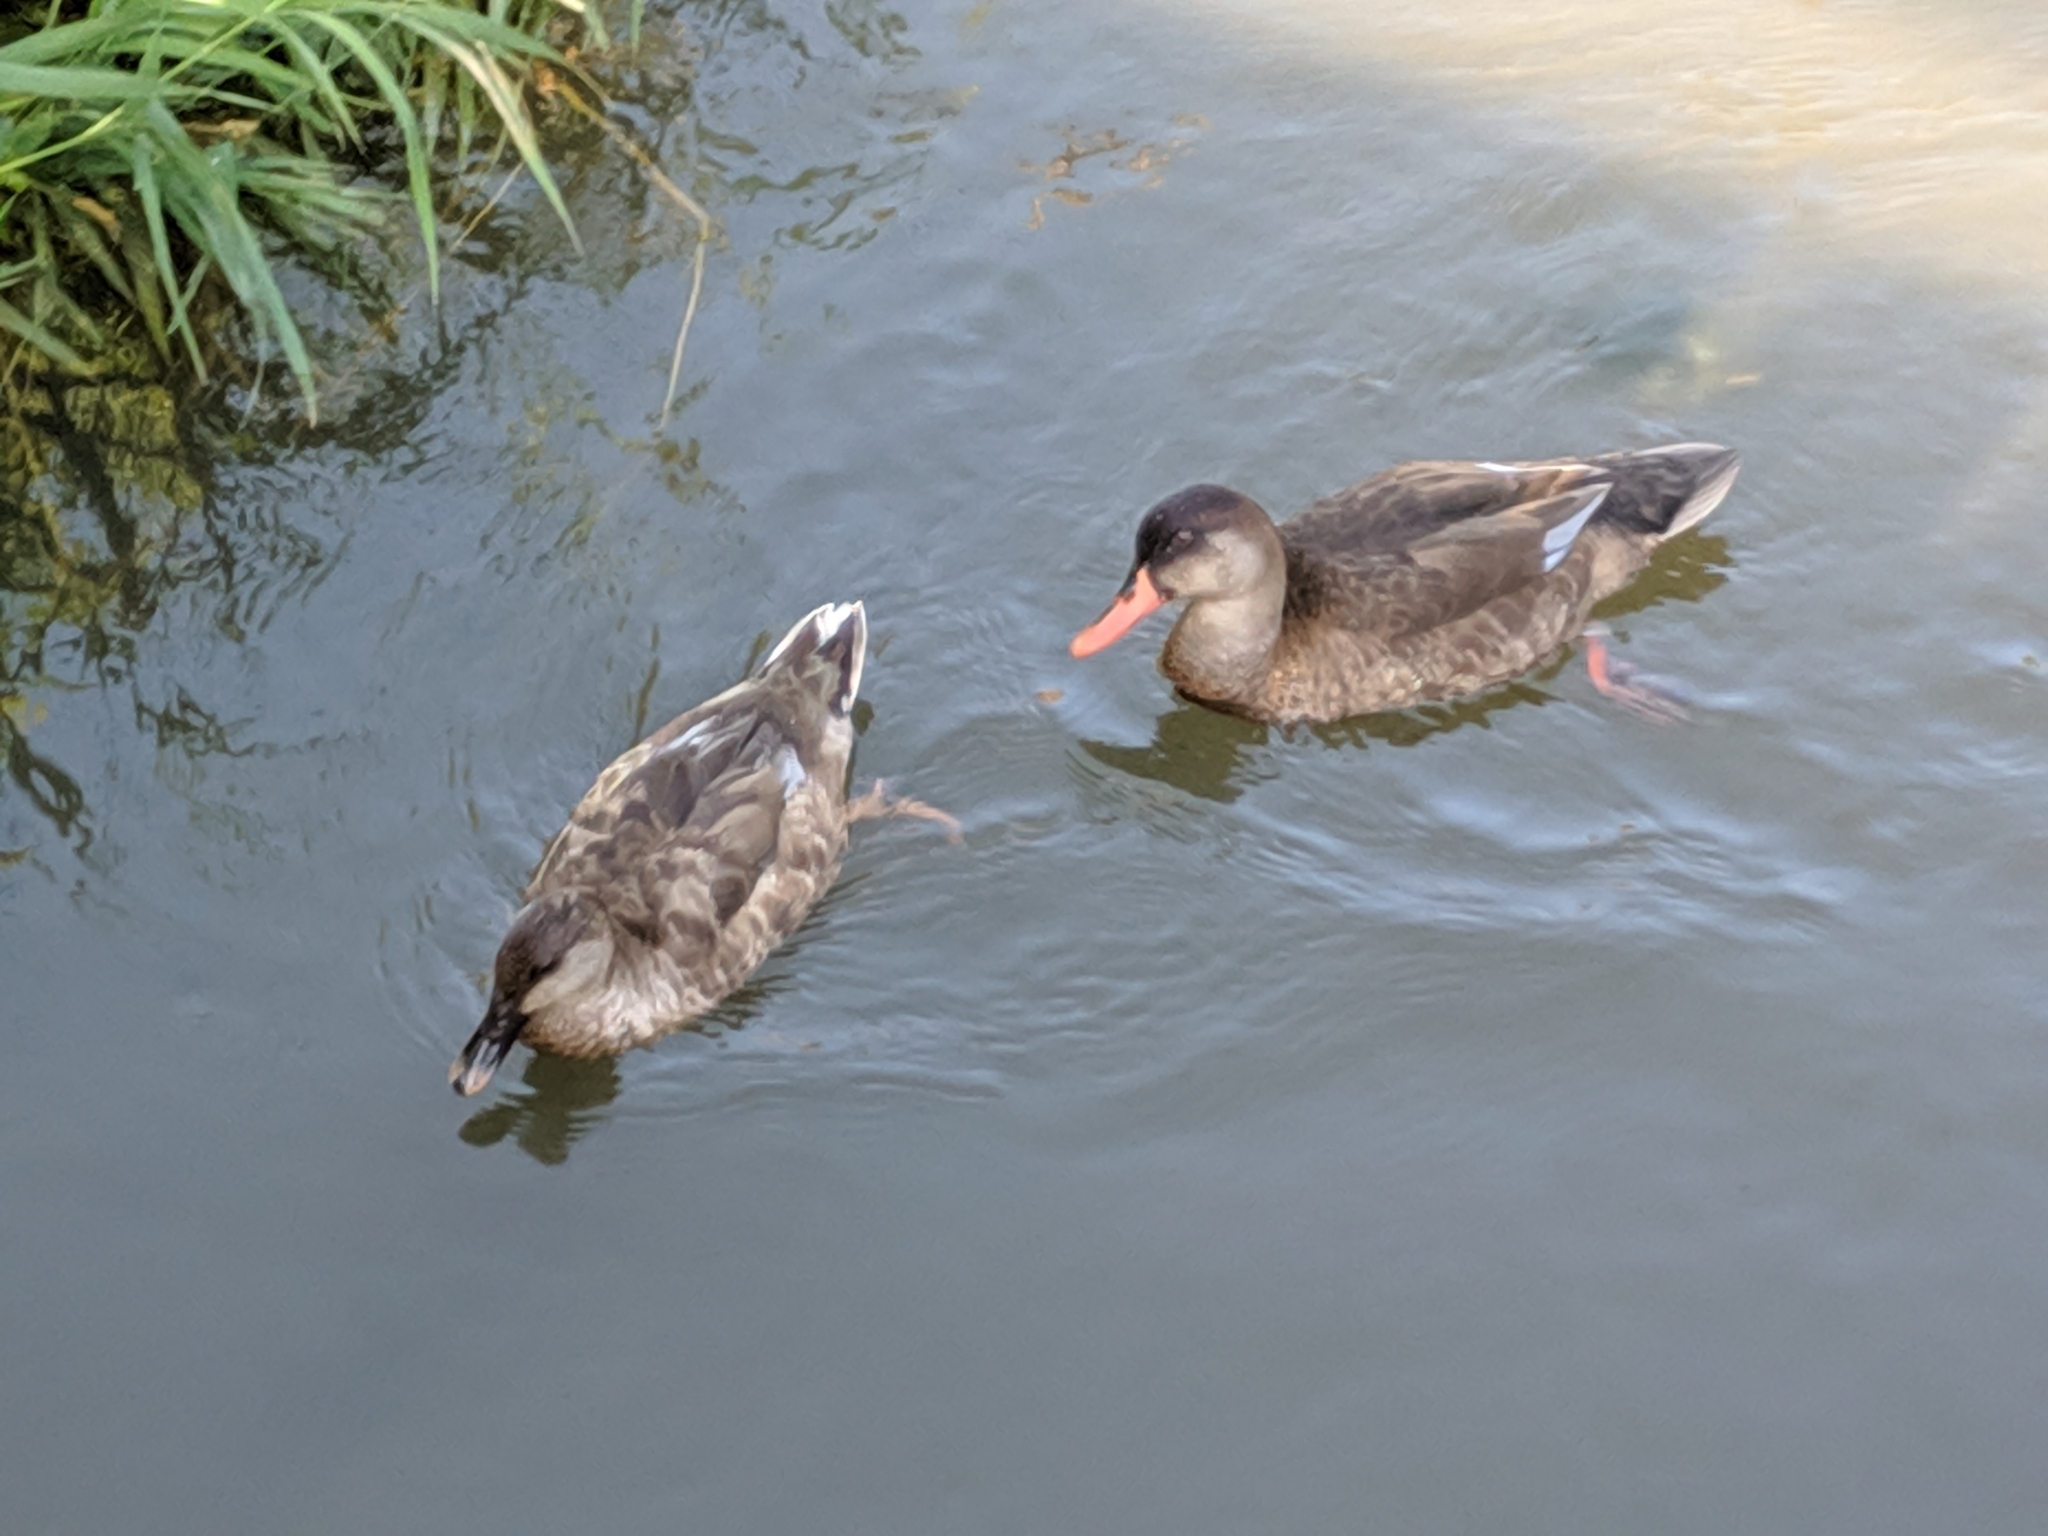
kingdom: Animalia
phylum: Chordata
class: Aves
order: Anseriformes
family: Anatidae
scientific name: Anatidae
